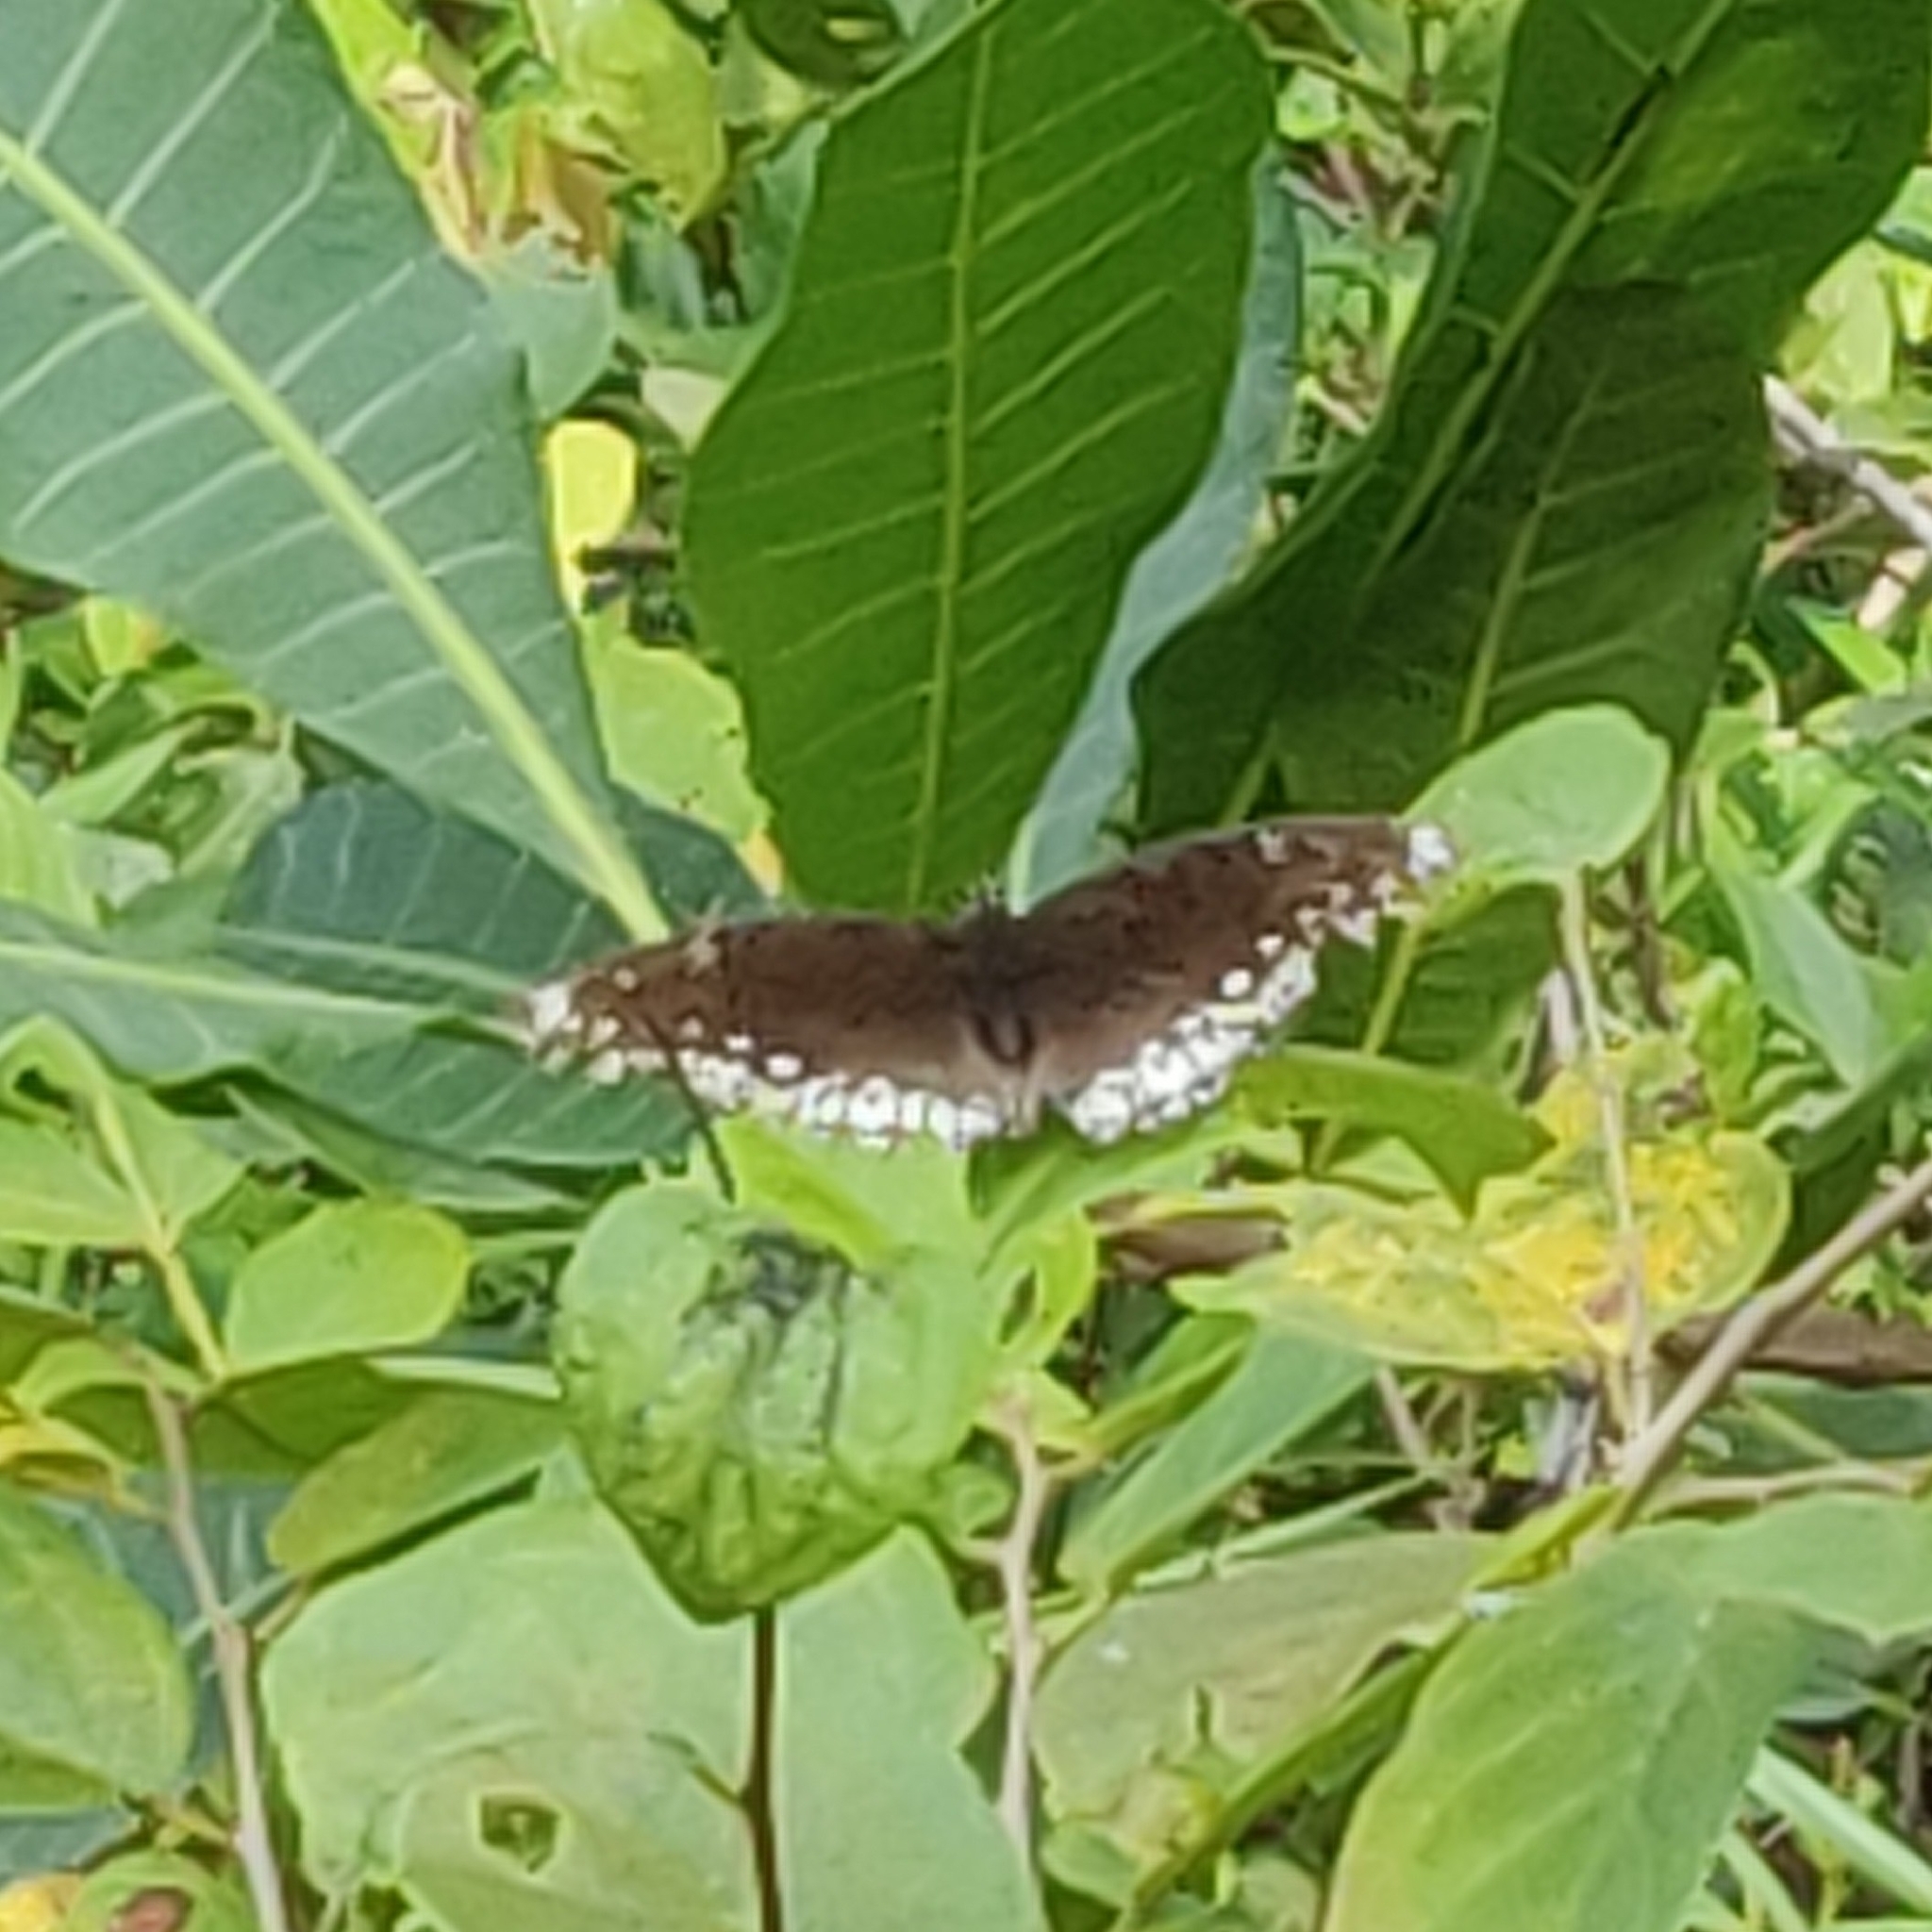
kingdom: Animalia
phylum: Arthropoda
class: Insecta
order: Lepidoptera
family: Nymphalidae
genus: Hypolimnas
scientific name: Hypolimnas bolina
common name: Great eggfly
